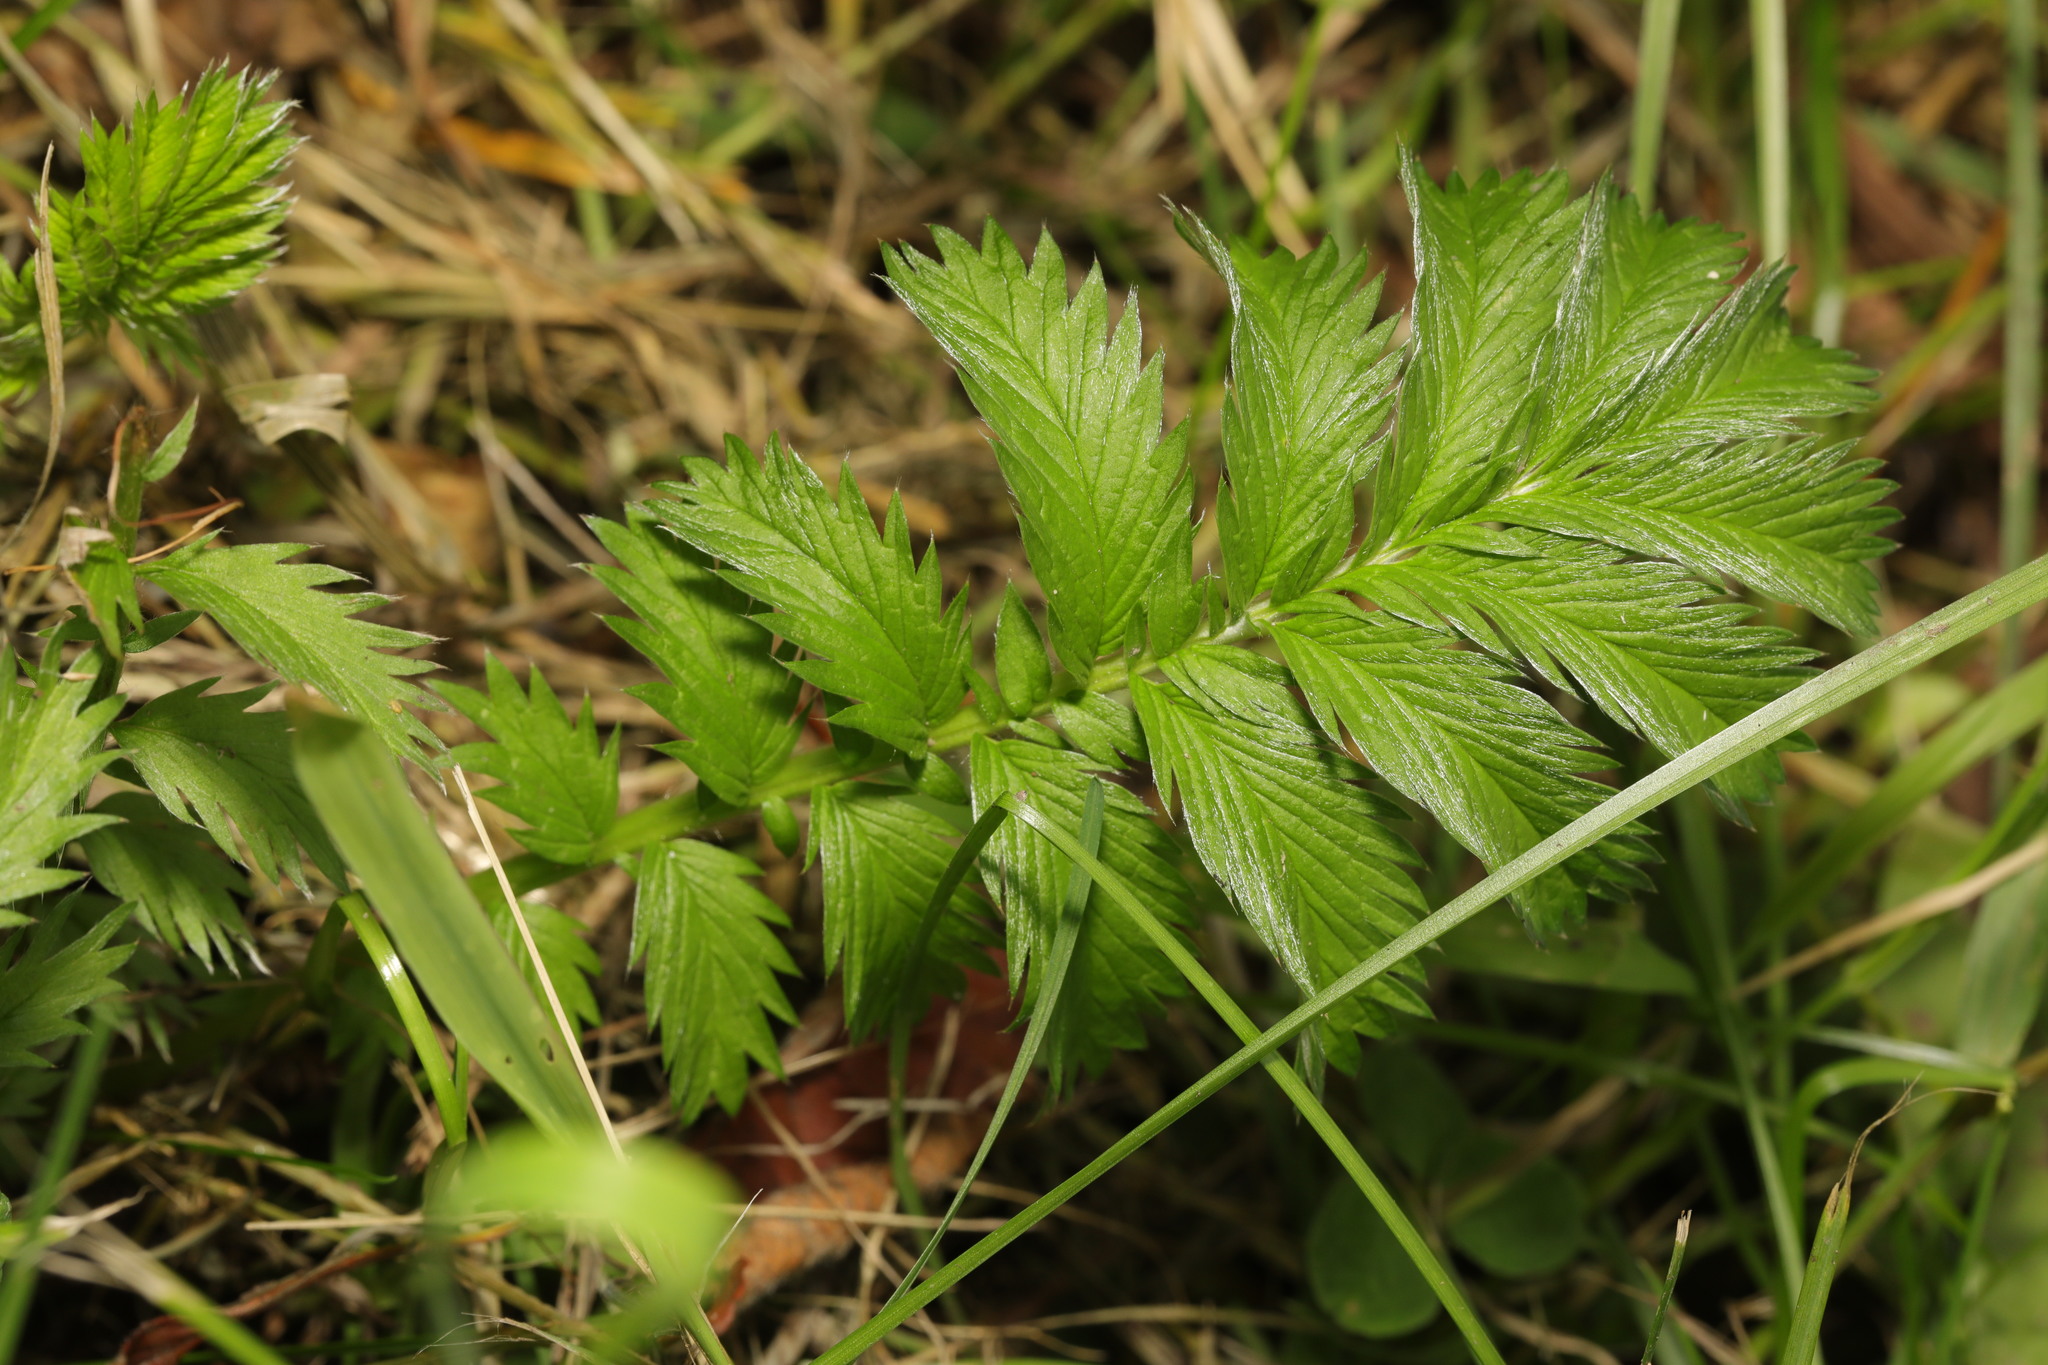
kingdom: Plantae
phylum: Tracheophyta
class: Magnoliopsida
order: Rosales
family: Rosaceae
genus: Argentina
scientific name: Argentina anserina
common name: Common silverweed
